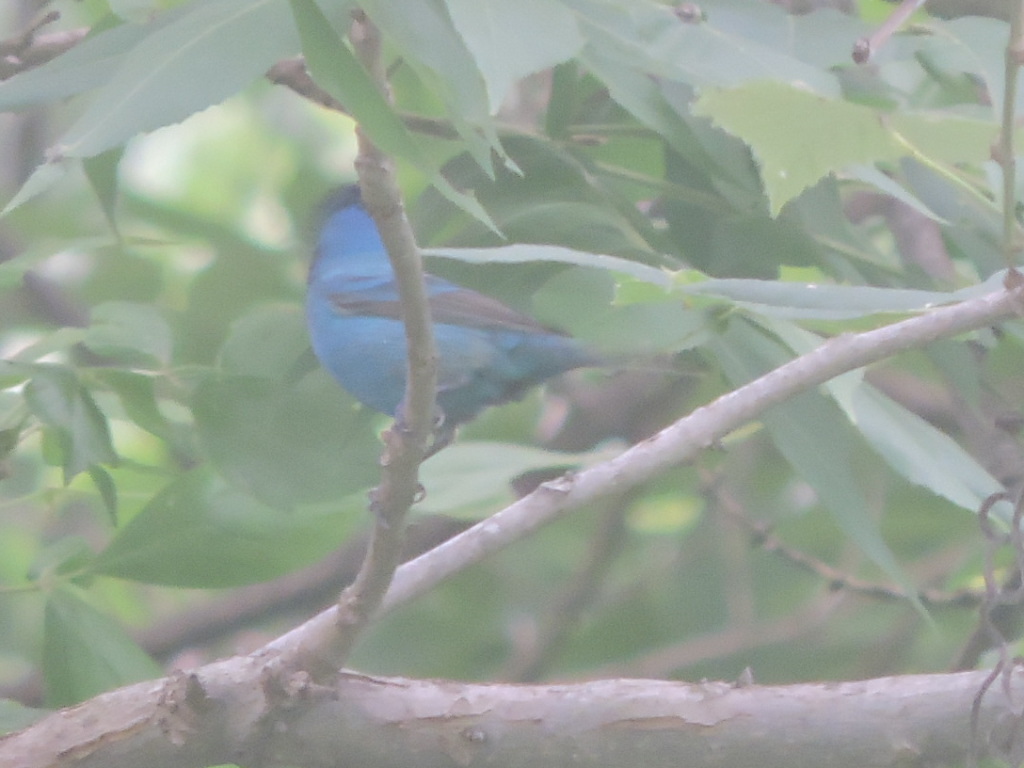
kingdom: Animalia
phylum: Chordata
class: Aves
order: Passeriformes
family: Cardinalidae
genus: Passerina
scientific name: Passerina cyanea
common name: Indigo bunting
